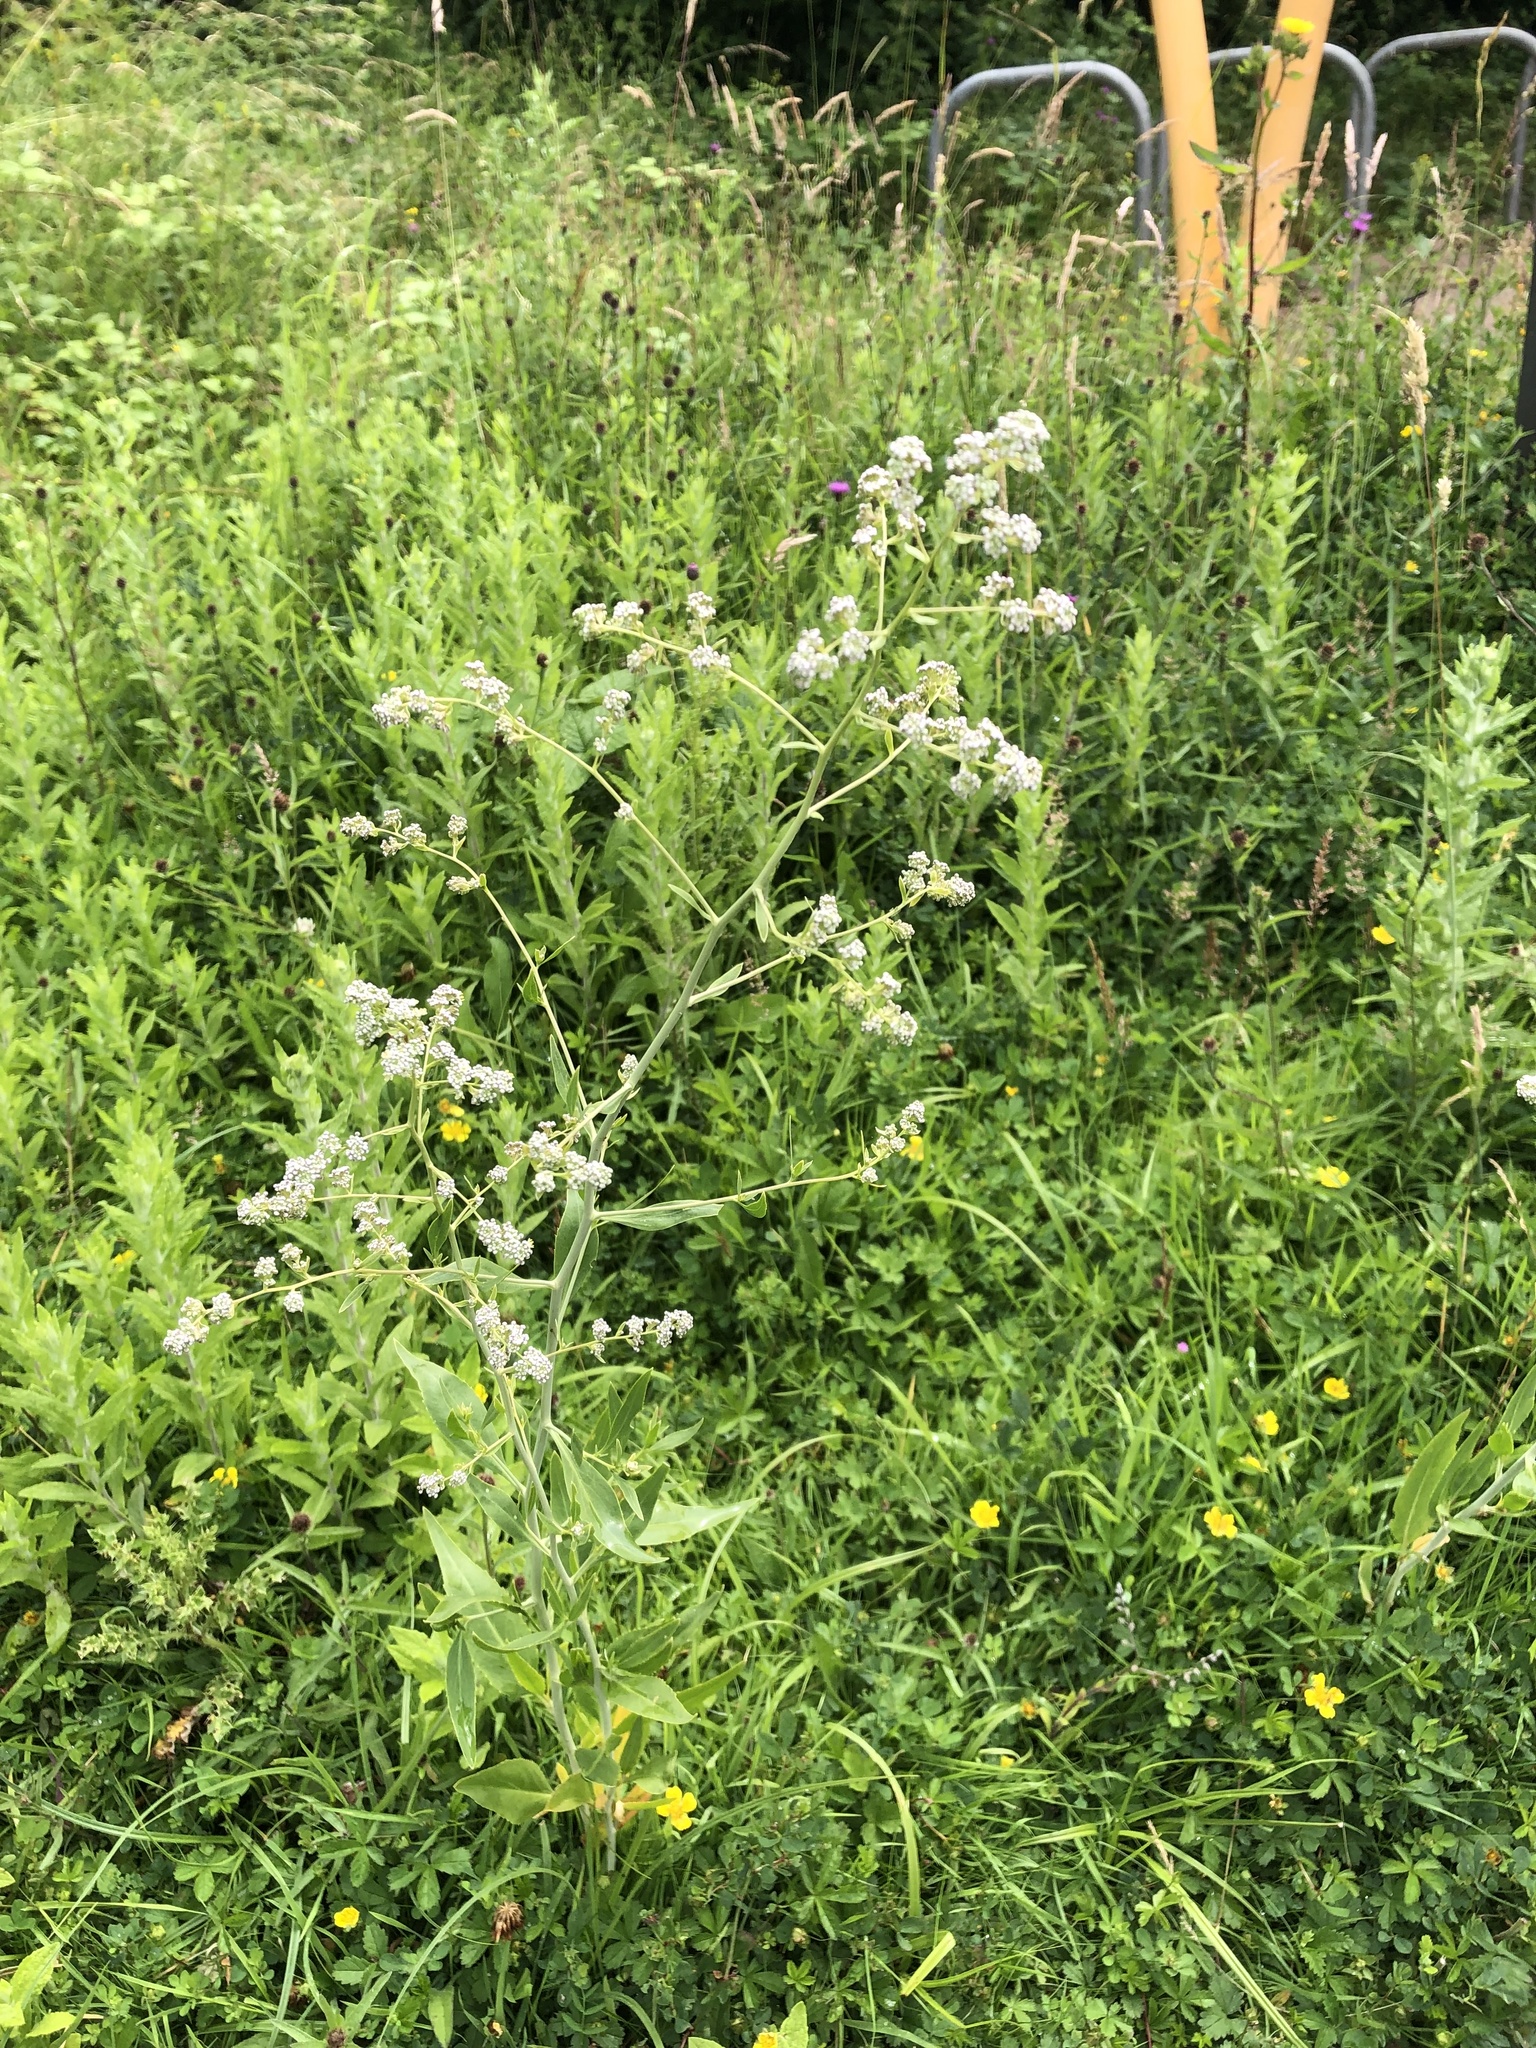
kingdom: Plantae
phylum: Tracheophyta
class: Magnoliopsida
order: Brassicales
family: Brassicaceae
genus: Lepidium
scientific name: Lepidium latifolium
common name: Dittander
